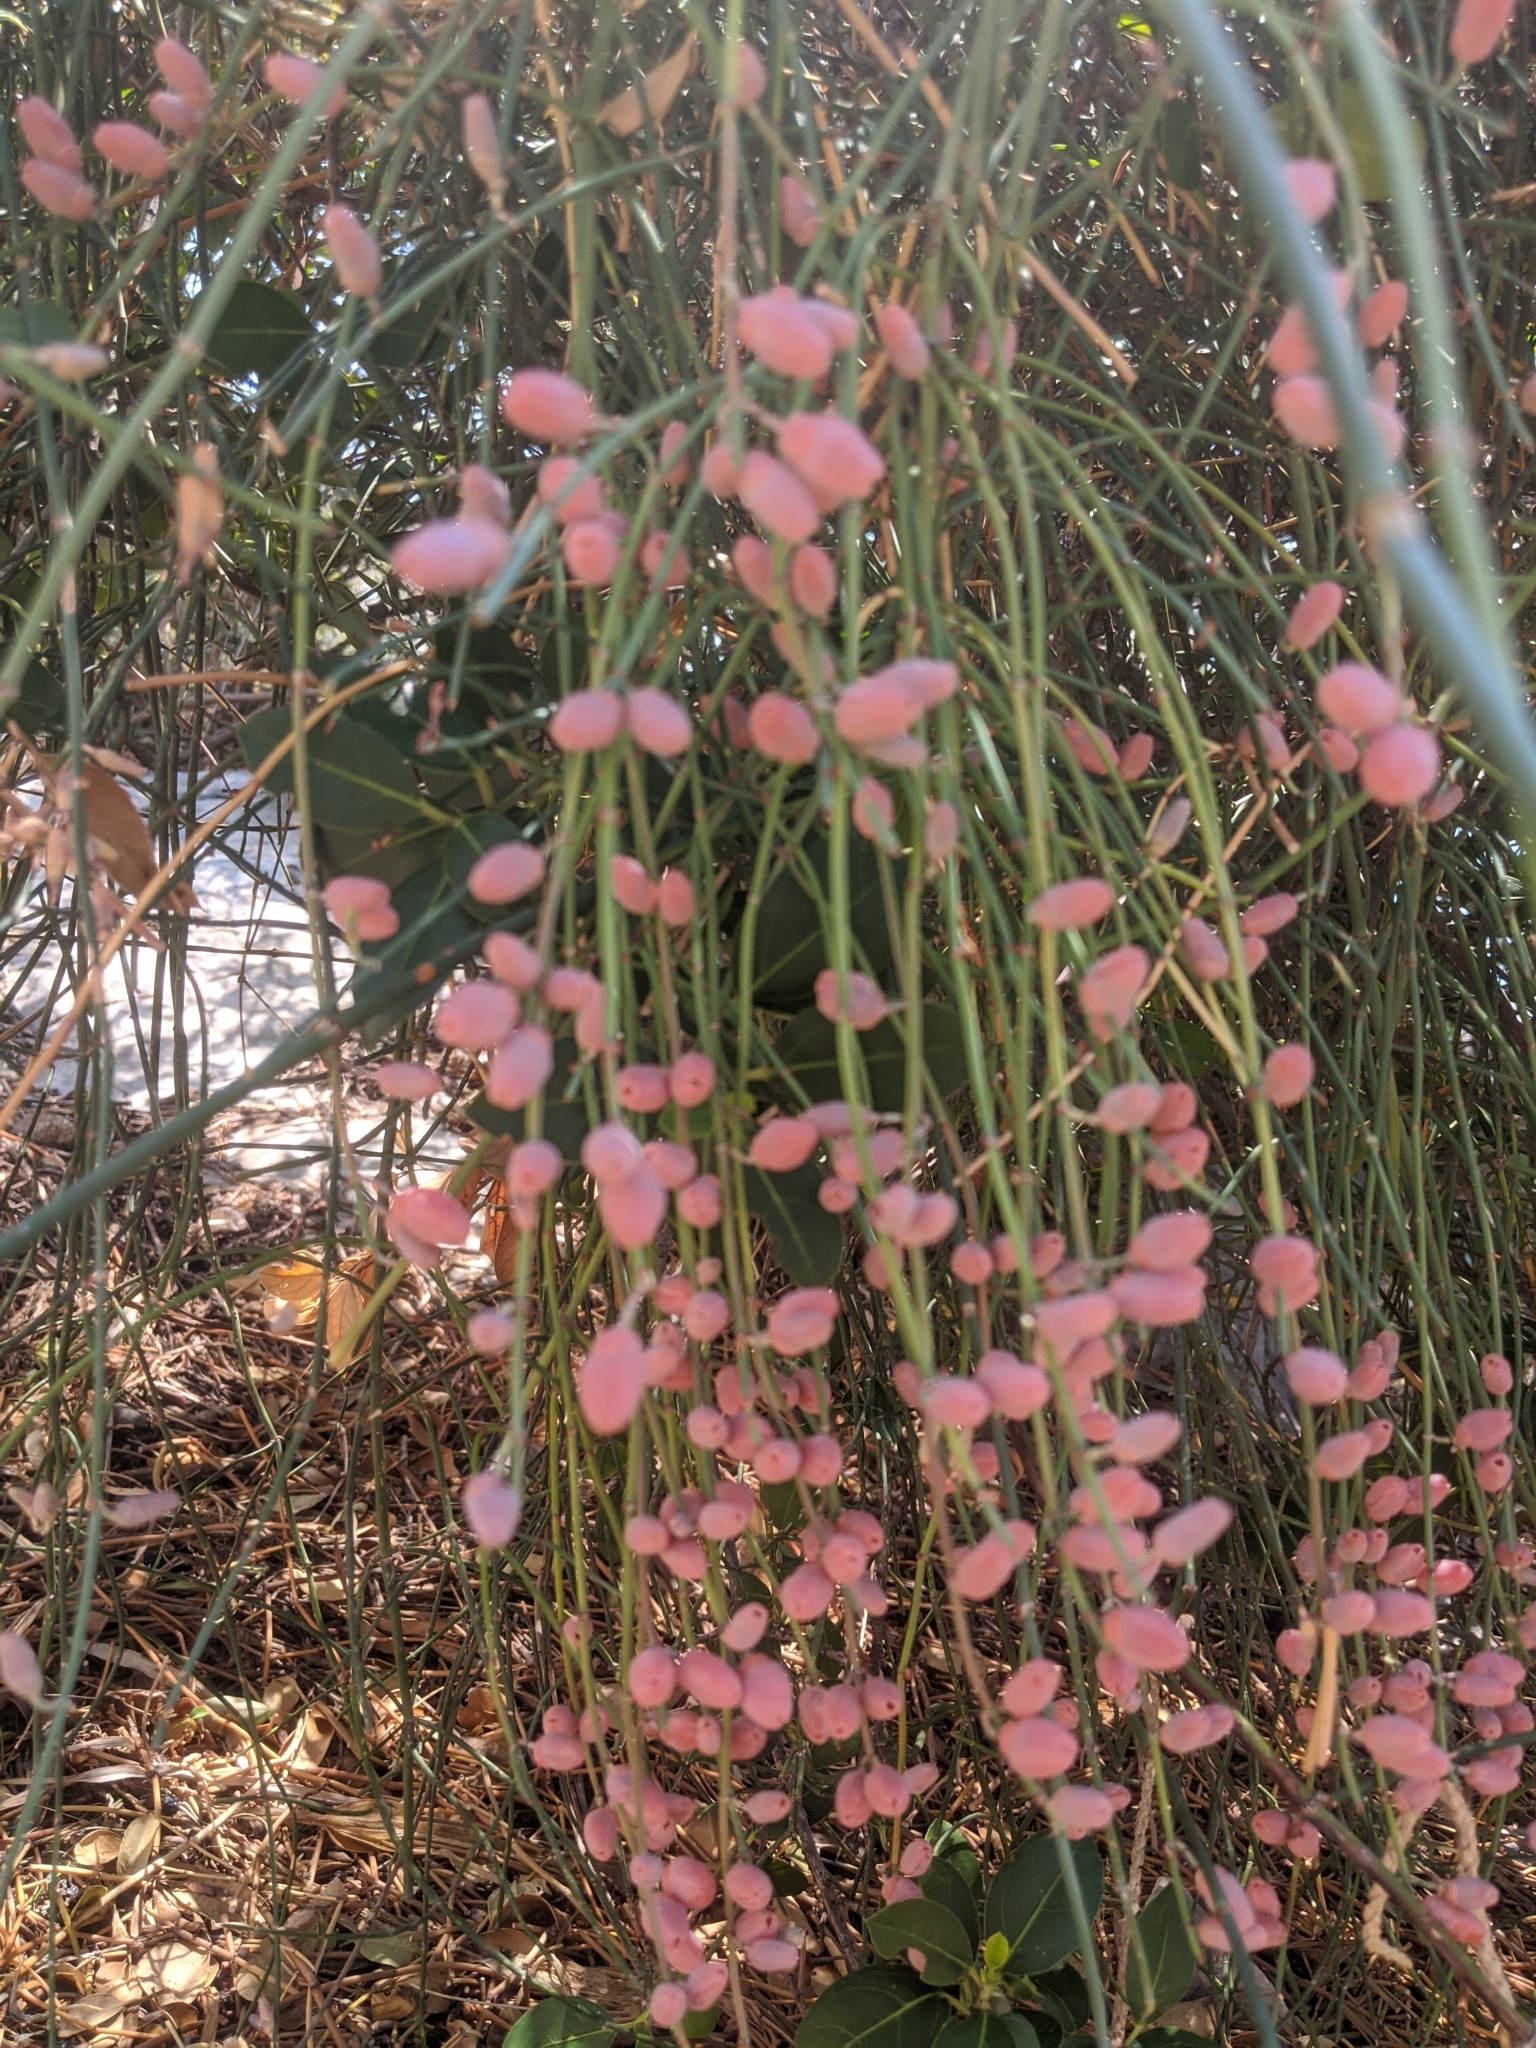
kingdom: Plantae
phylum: Tracheophyta
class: Gnetopsida
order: Ephedrales
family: Ephedraceae
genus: Ephedra
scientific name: Ephedra foeminea
